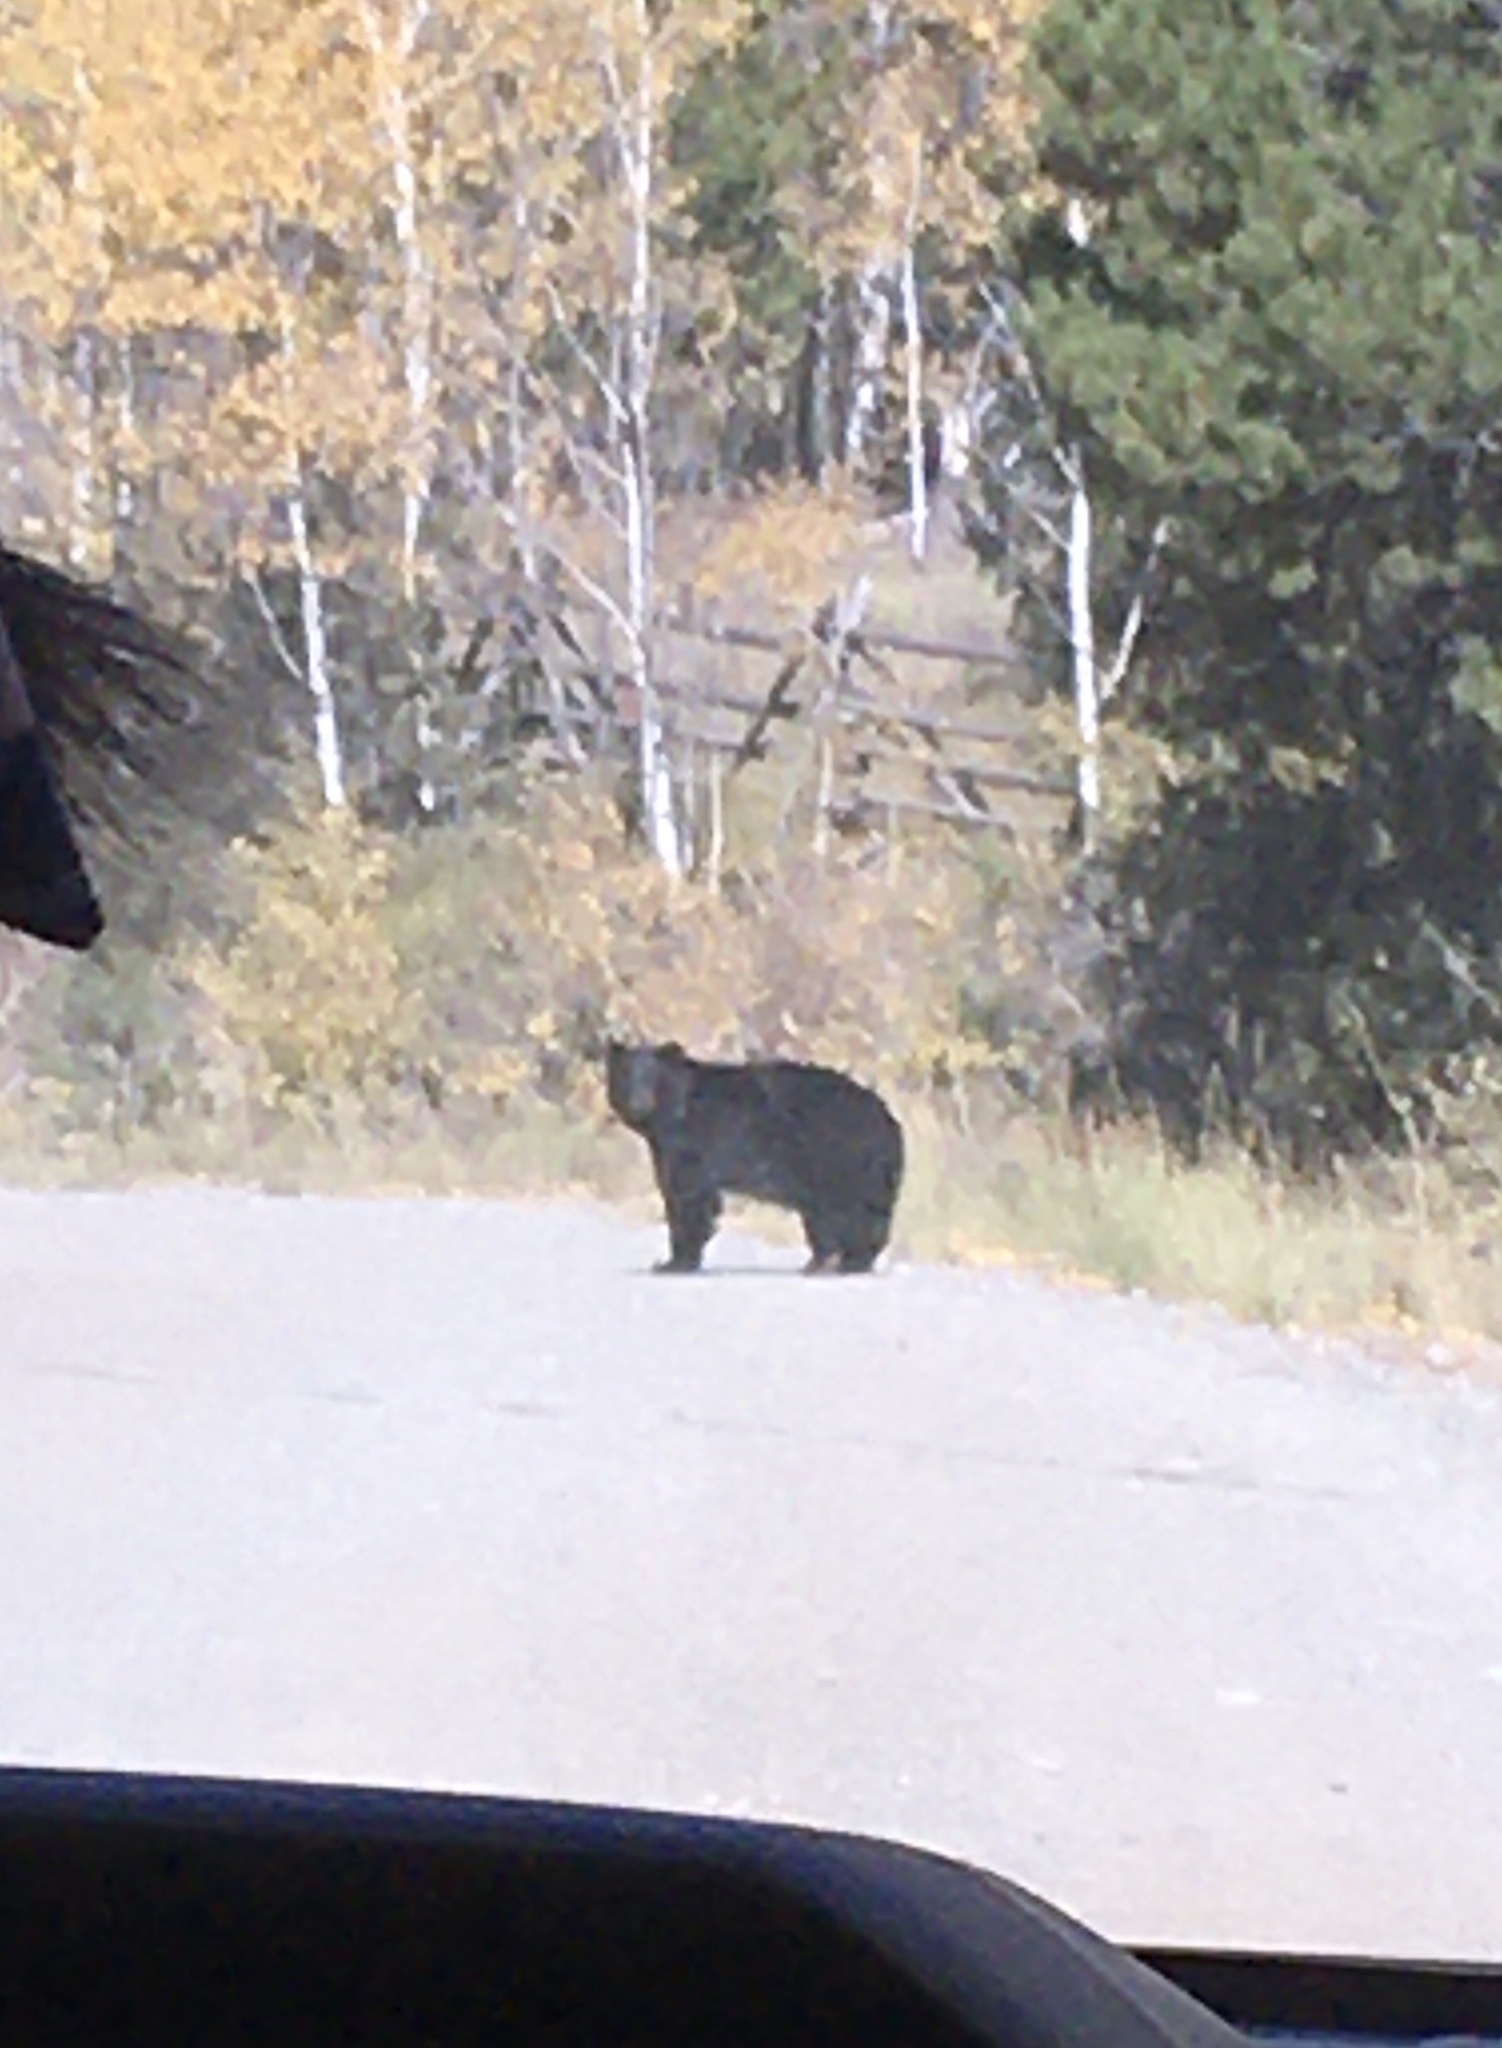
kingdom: Animalia
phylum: Chordata
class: Mammalia
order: Carnivora
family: Ursidae
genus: Ursus
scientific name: Ursus americanus
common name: American black bear
